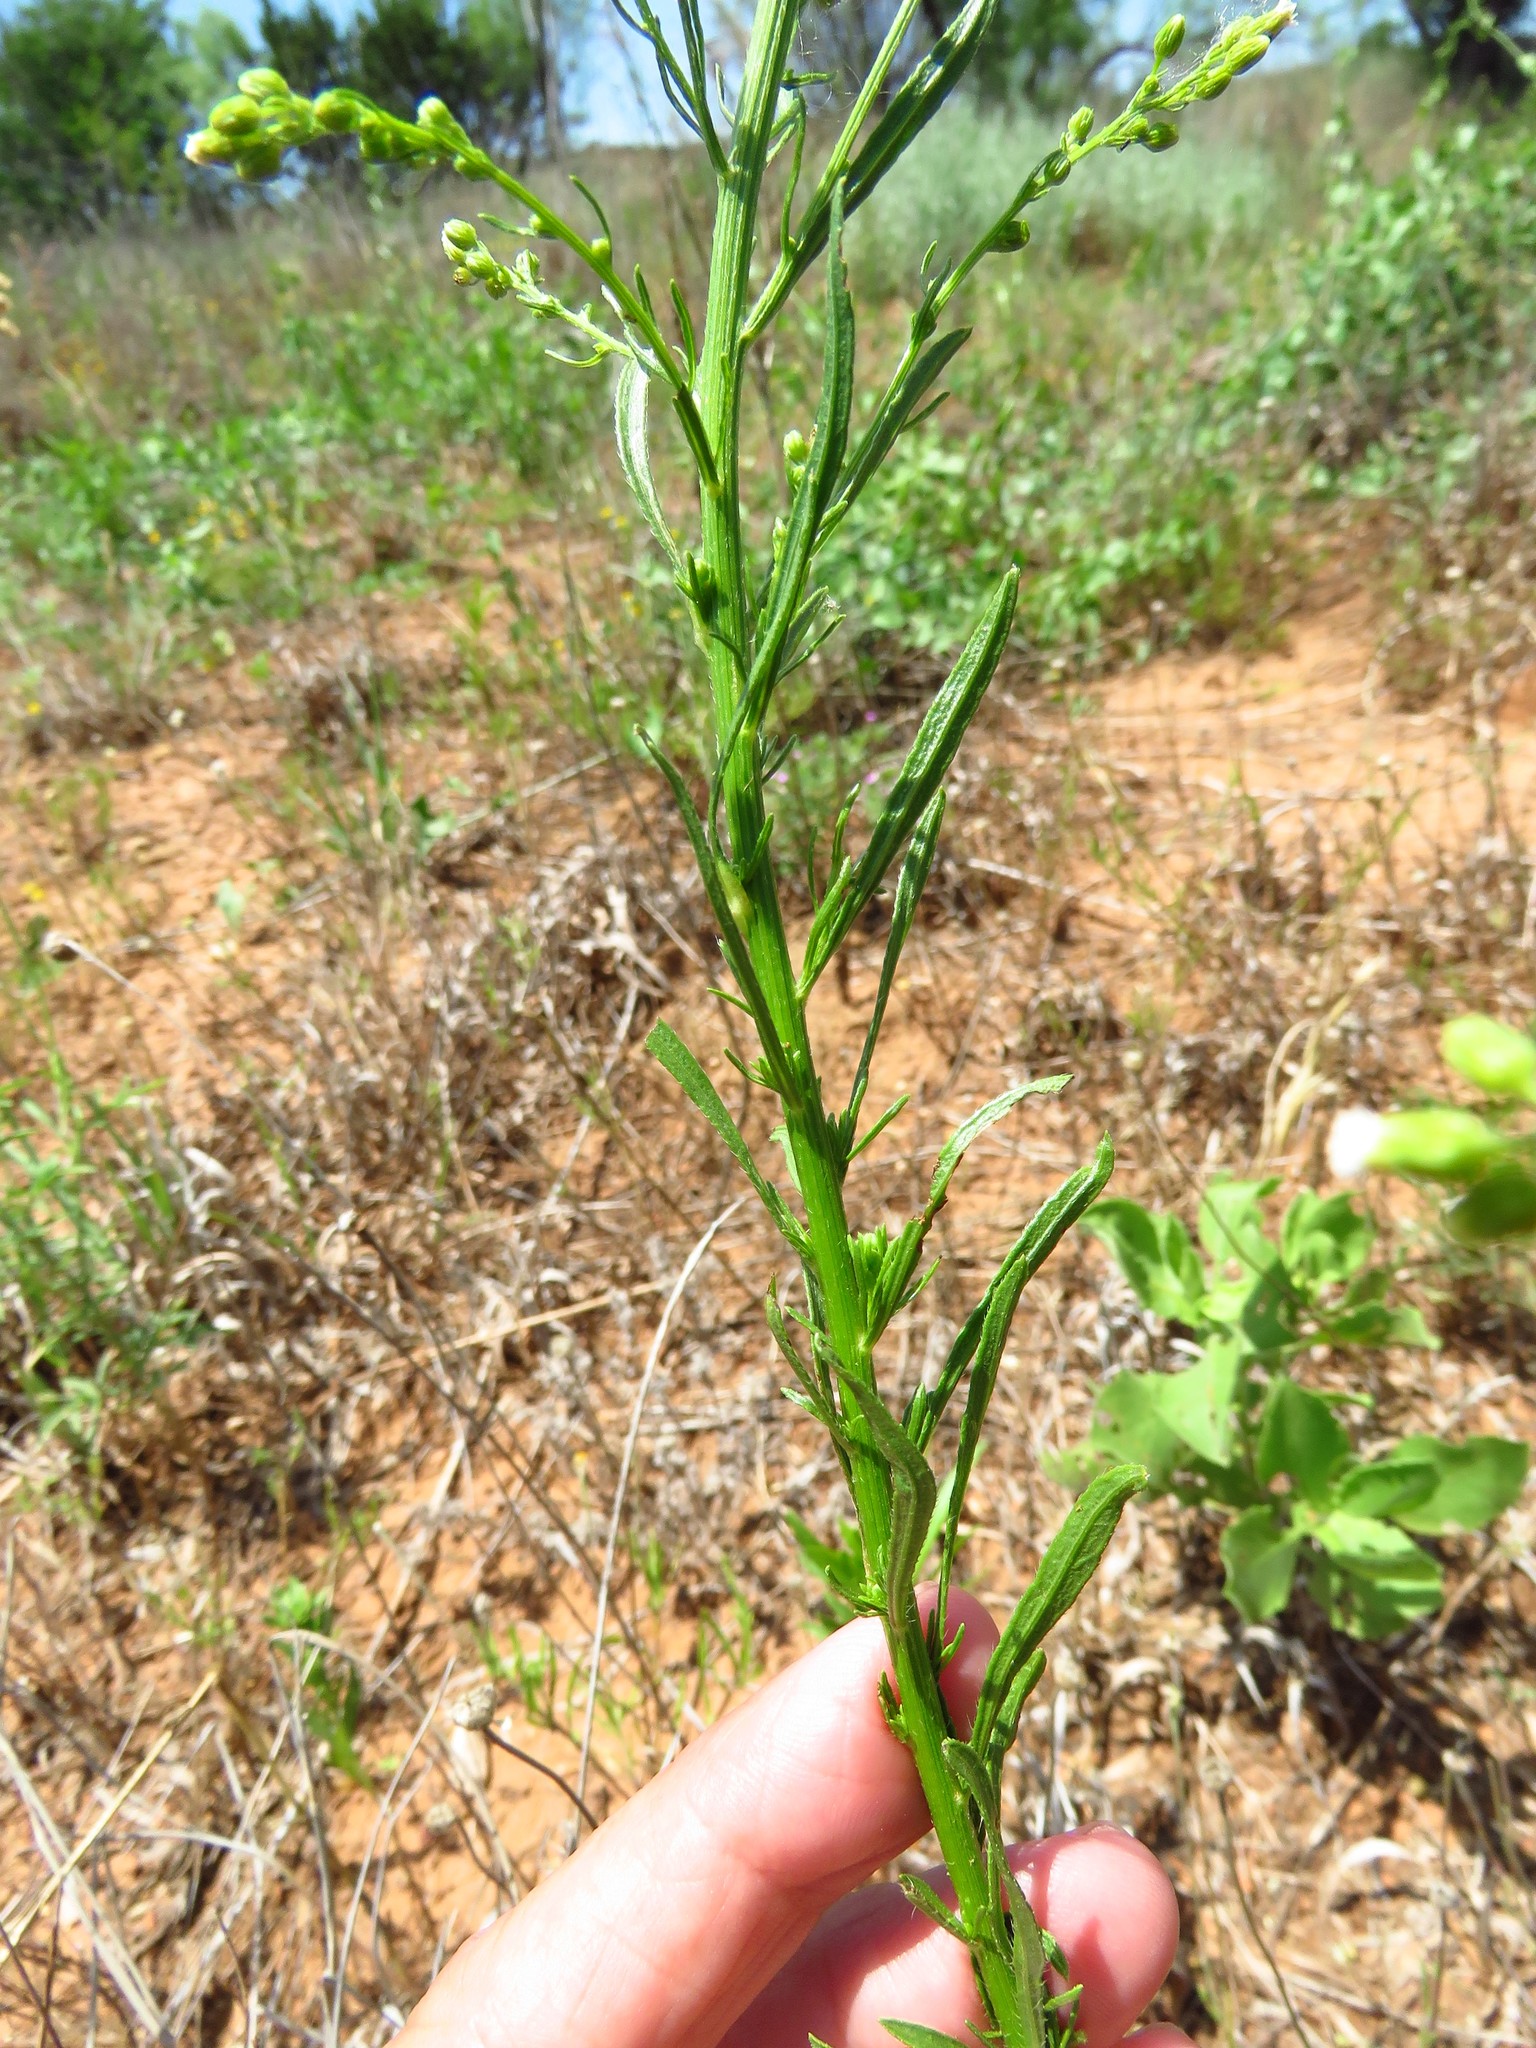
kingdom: Plantae
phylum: Tracheophyta
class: Magnoliopsida
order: Asterales
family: Asteraceae
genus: Erigeron
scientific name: Erigeron canadensis
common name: Canadian fleabane
